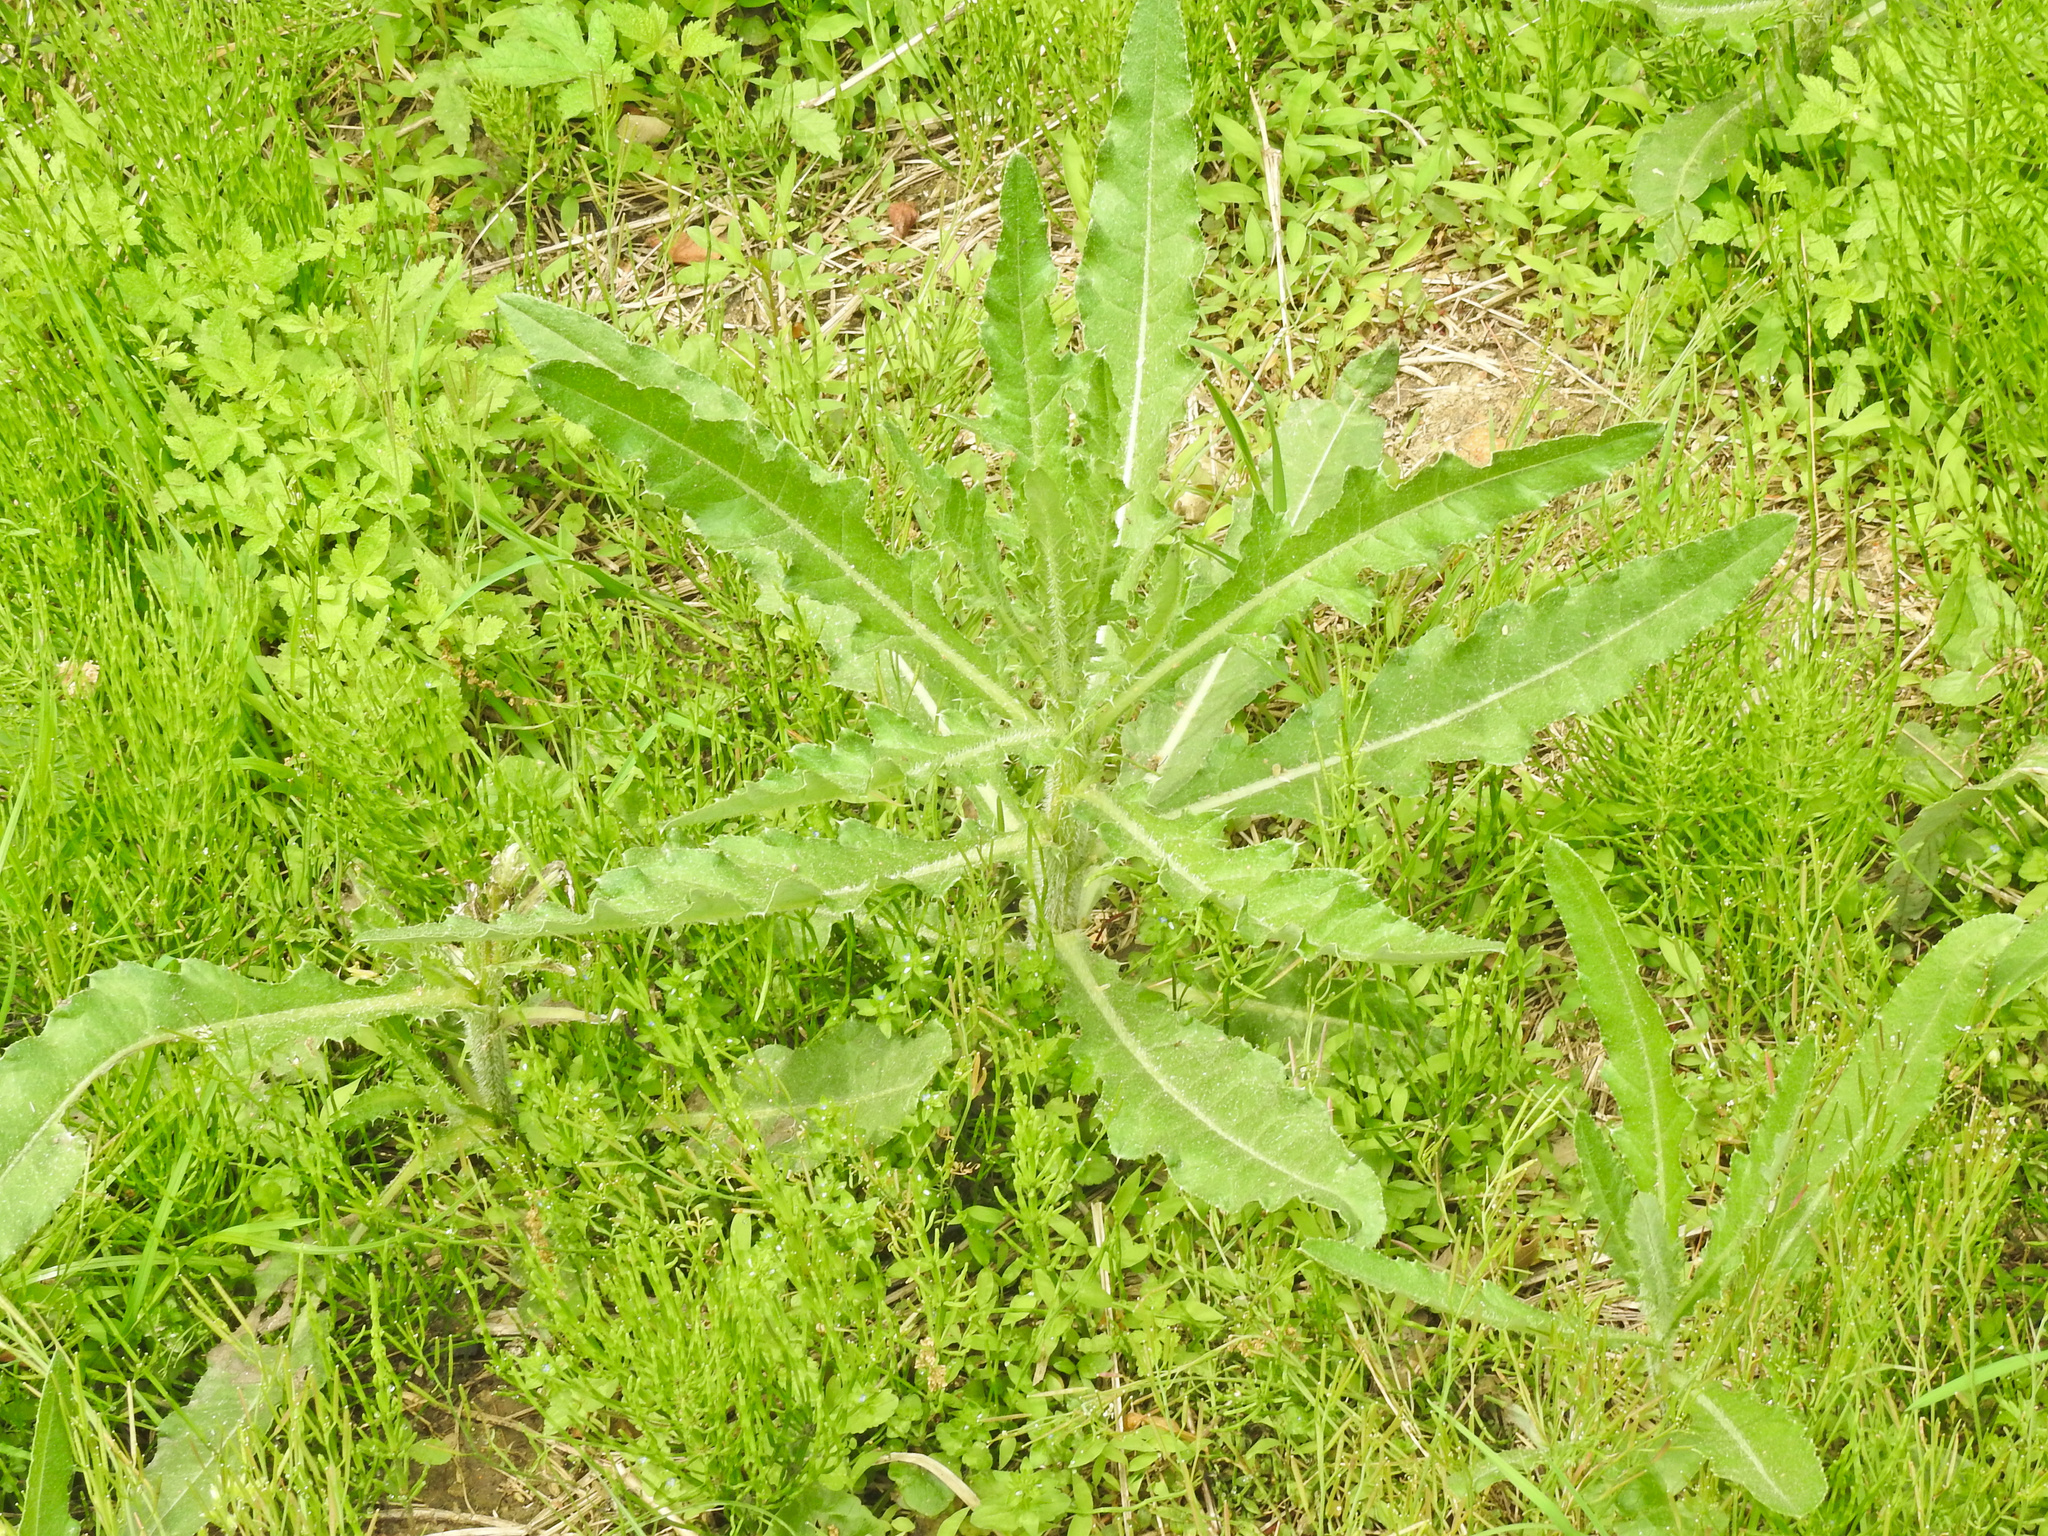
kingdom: Plantae
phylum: Tracheophyta
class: Magnoliopsida
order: Asterales
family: Asteraceae
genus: Cirsium
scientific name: Cirsium arvense
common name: Creeping thistle
